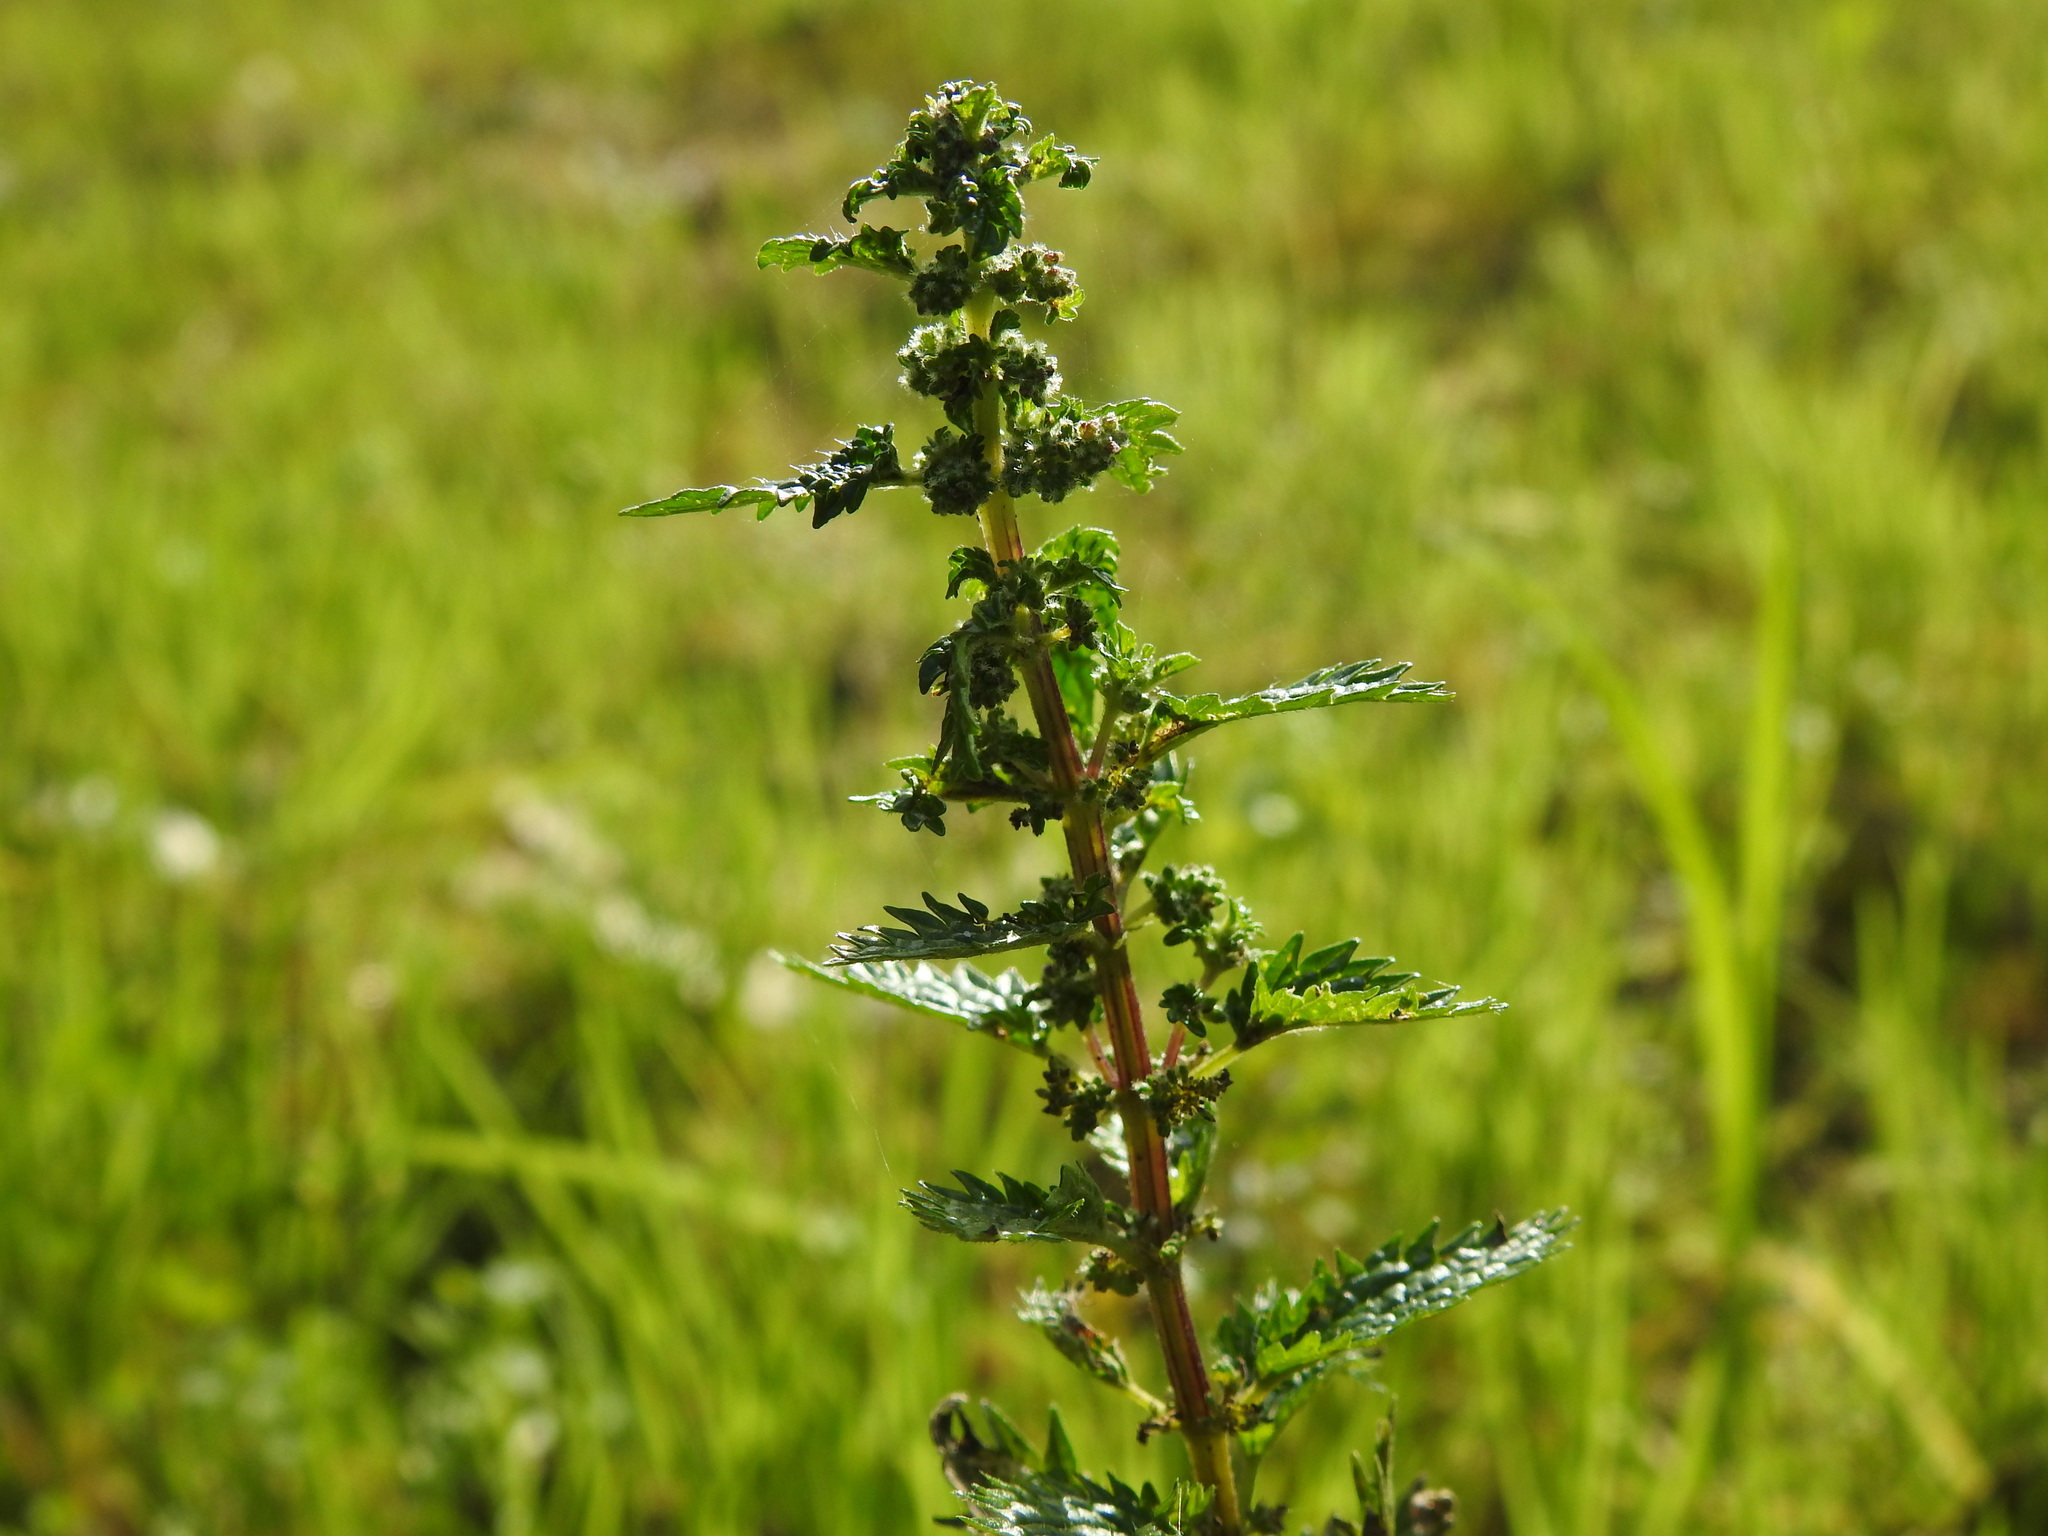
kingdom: Plantae
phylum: Tracheophyta
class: Magnoliopsida
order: Rosales
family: Urticaceae
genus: Urtica
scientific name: Urtica urens
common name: Dwarf nettle
